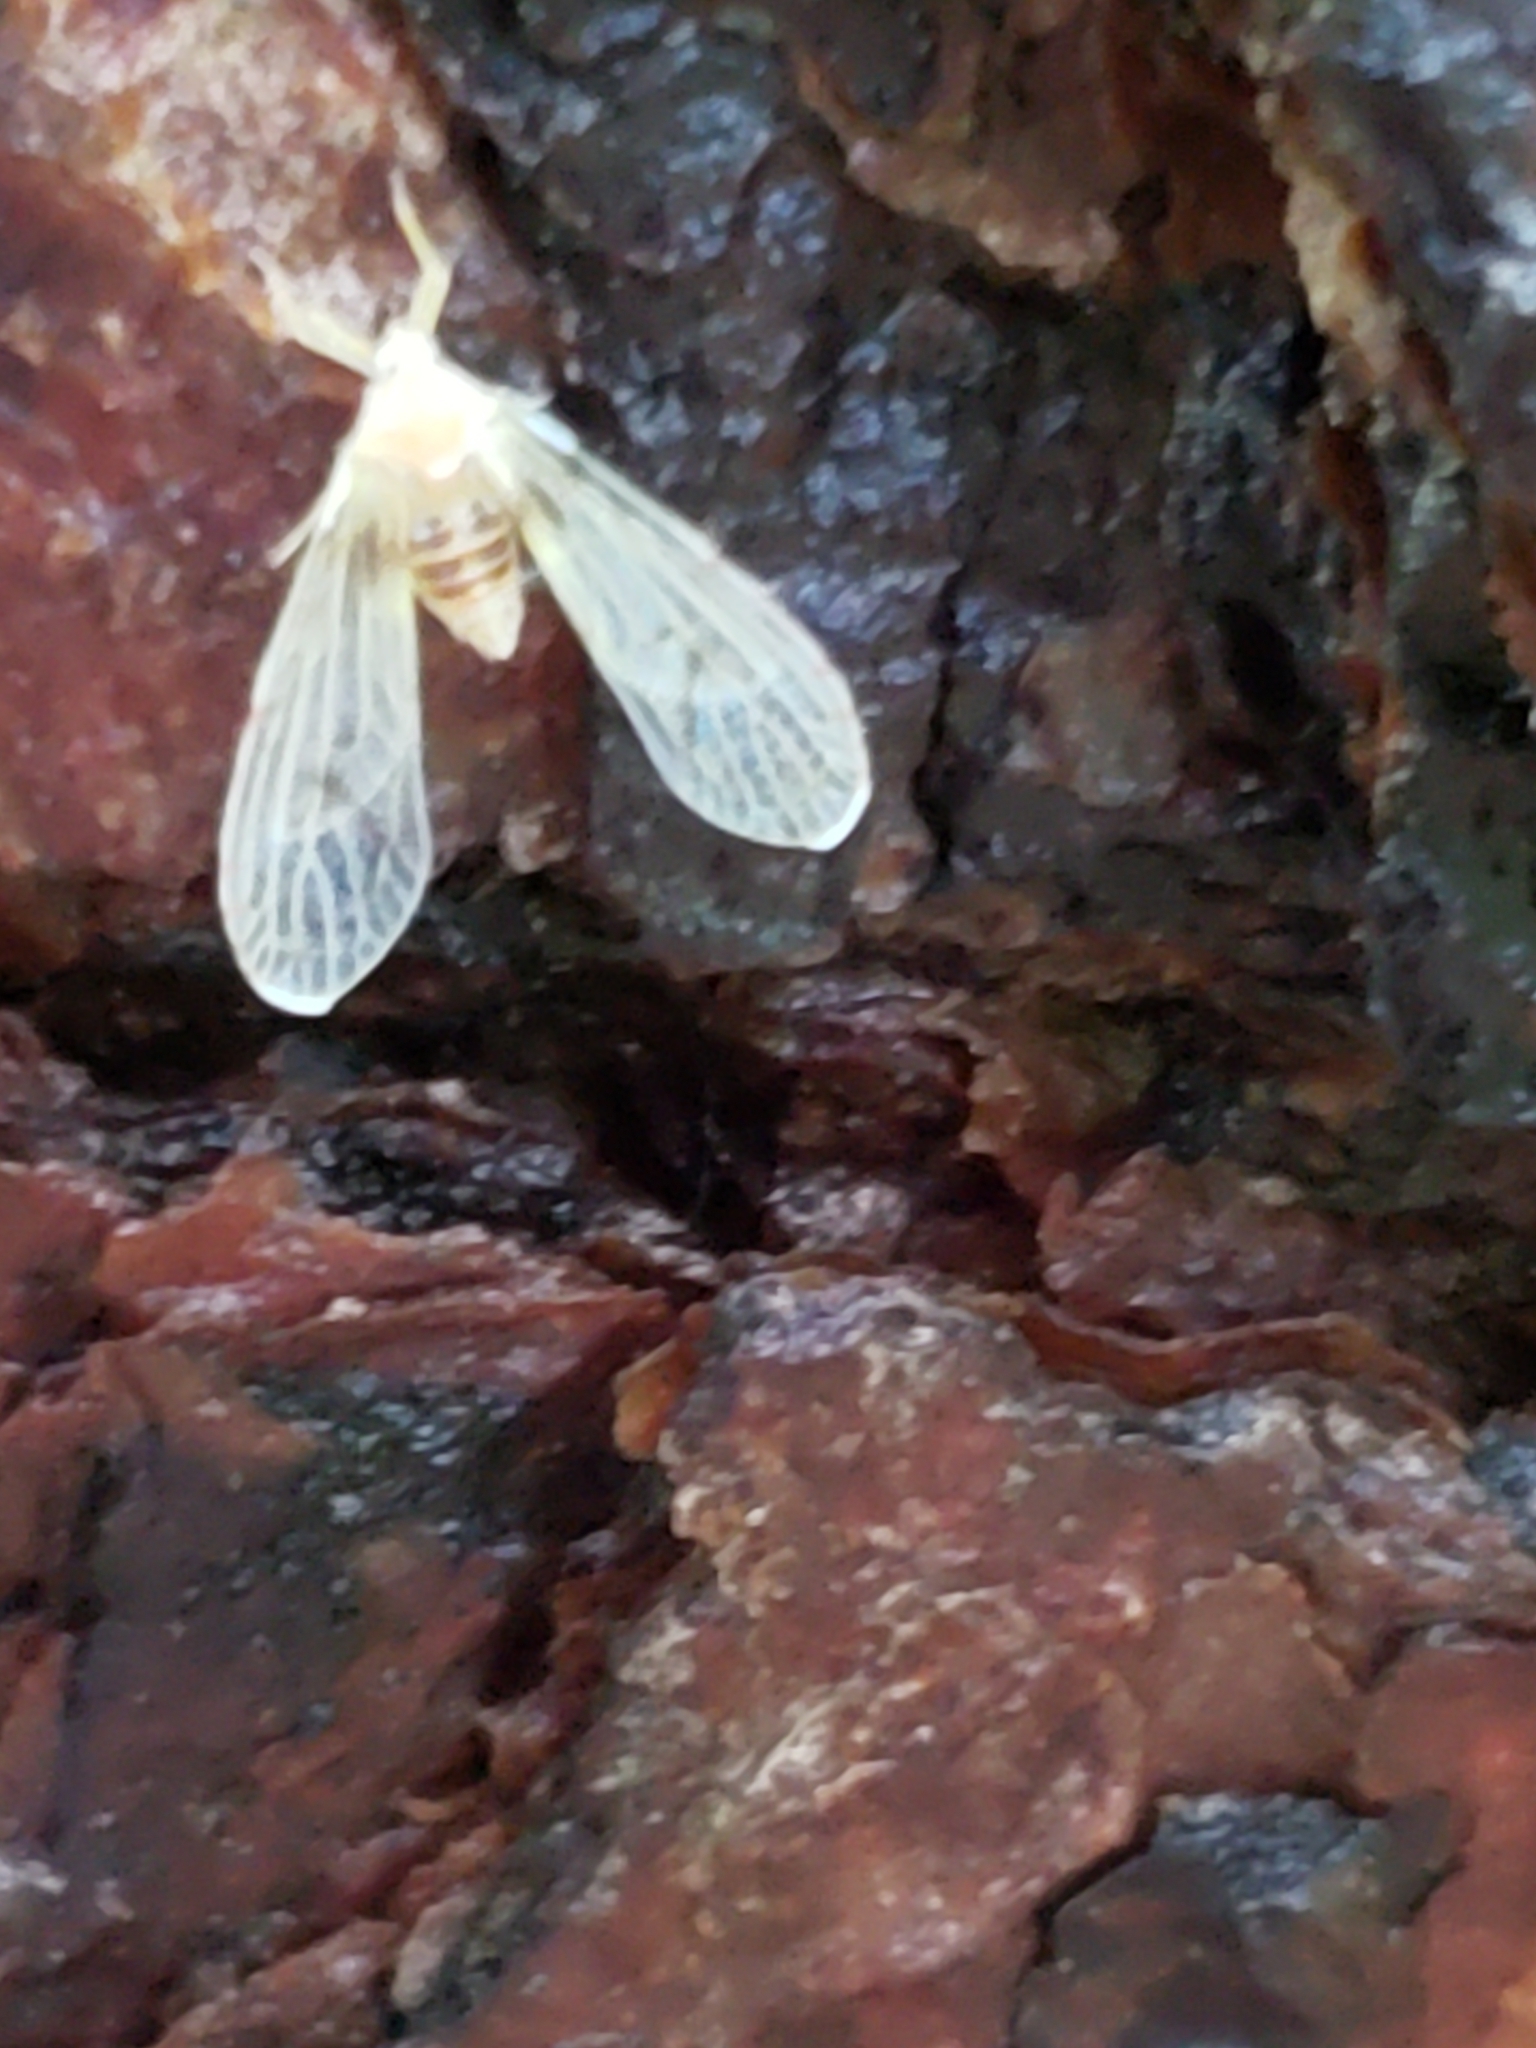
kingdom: Animalia
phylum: Arthropoda
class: Insecta
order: Hemiptera
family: Derbidae
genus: Anotia
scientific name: Anotia robertsonii
